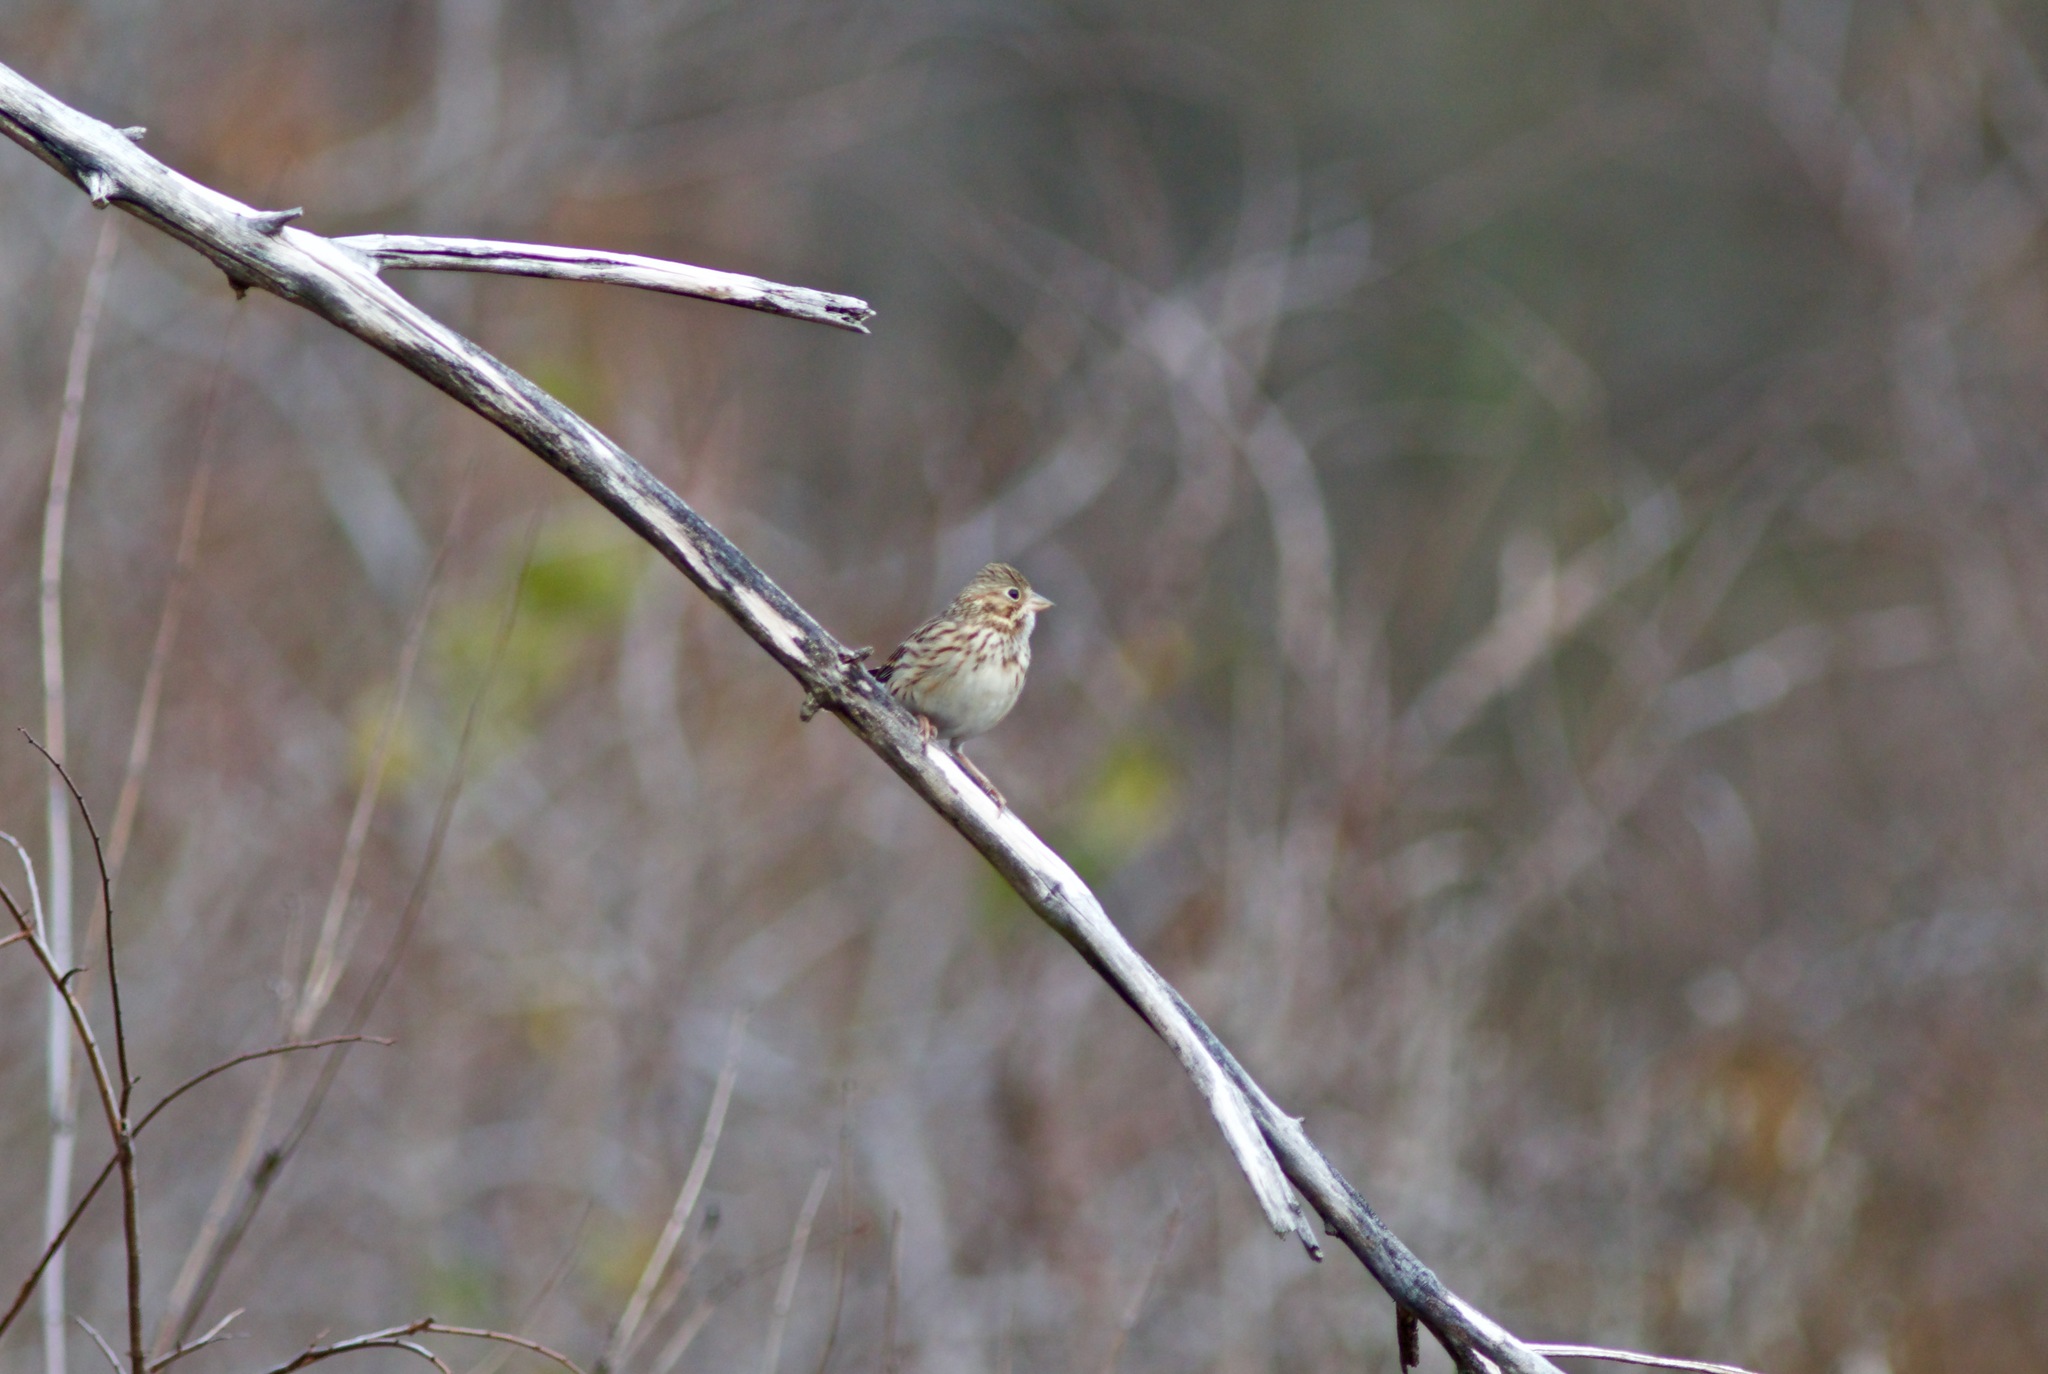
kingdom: Animalia
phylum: Chordata
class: Aves
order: Passeriformes
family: Passerellidae
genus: Pooecetes
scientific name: Pooecetes gramineus
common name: Vesper sparrow
